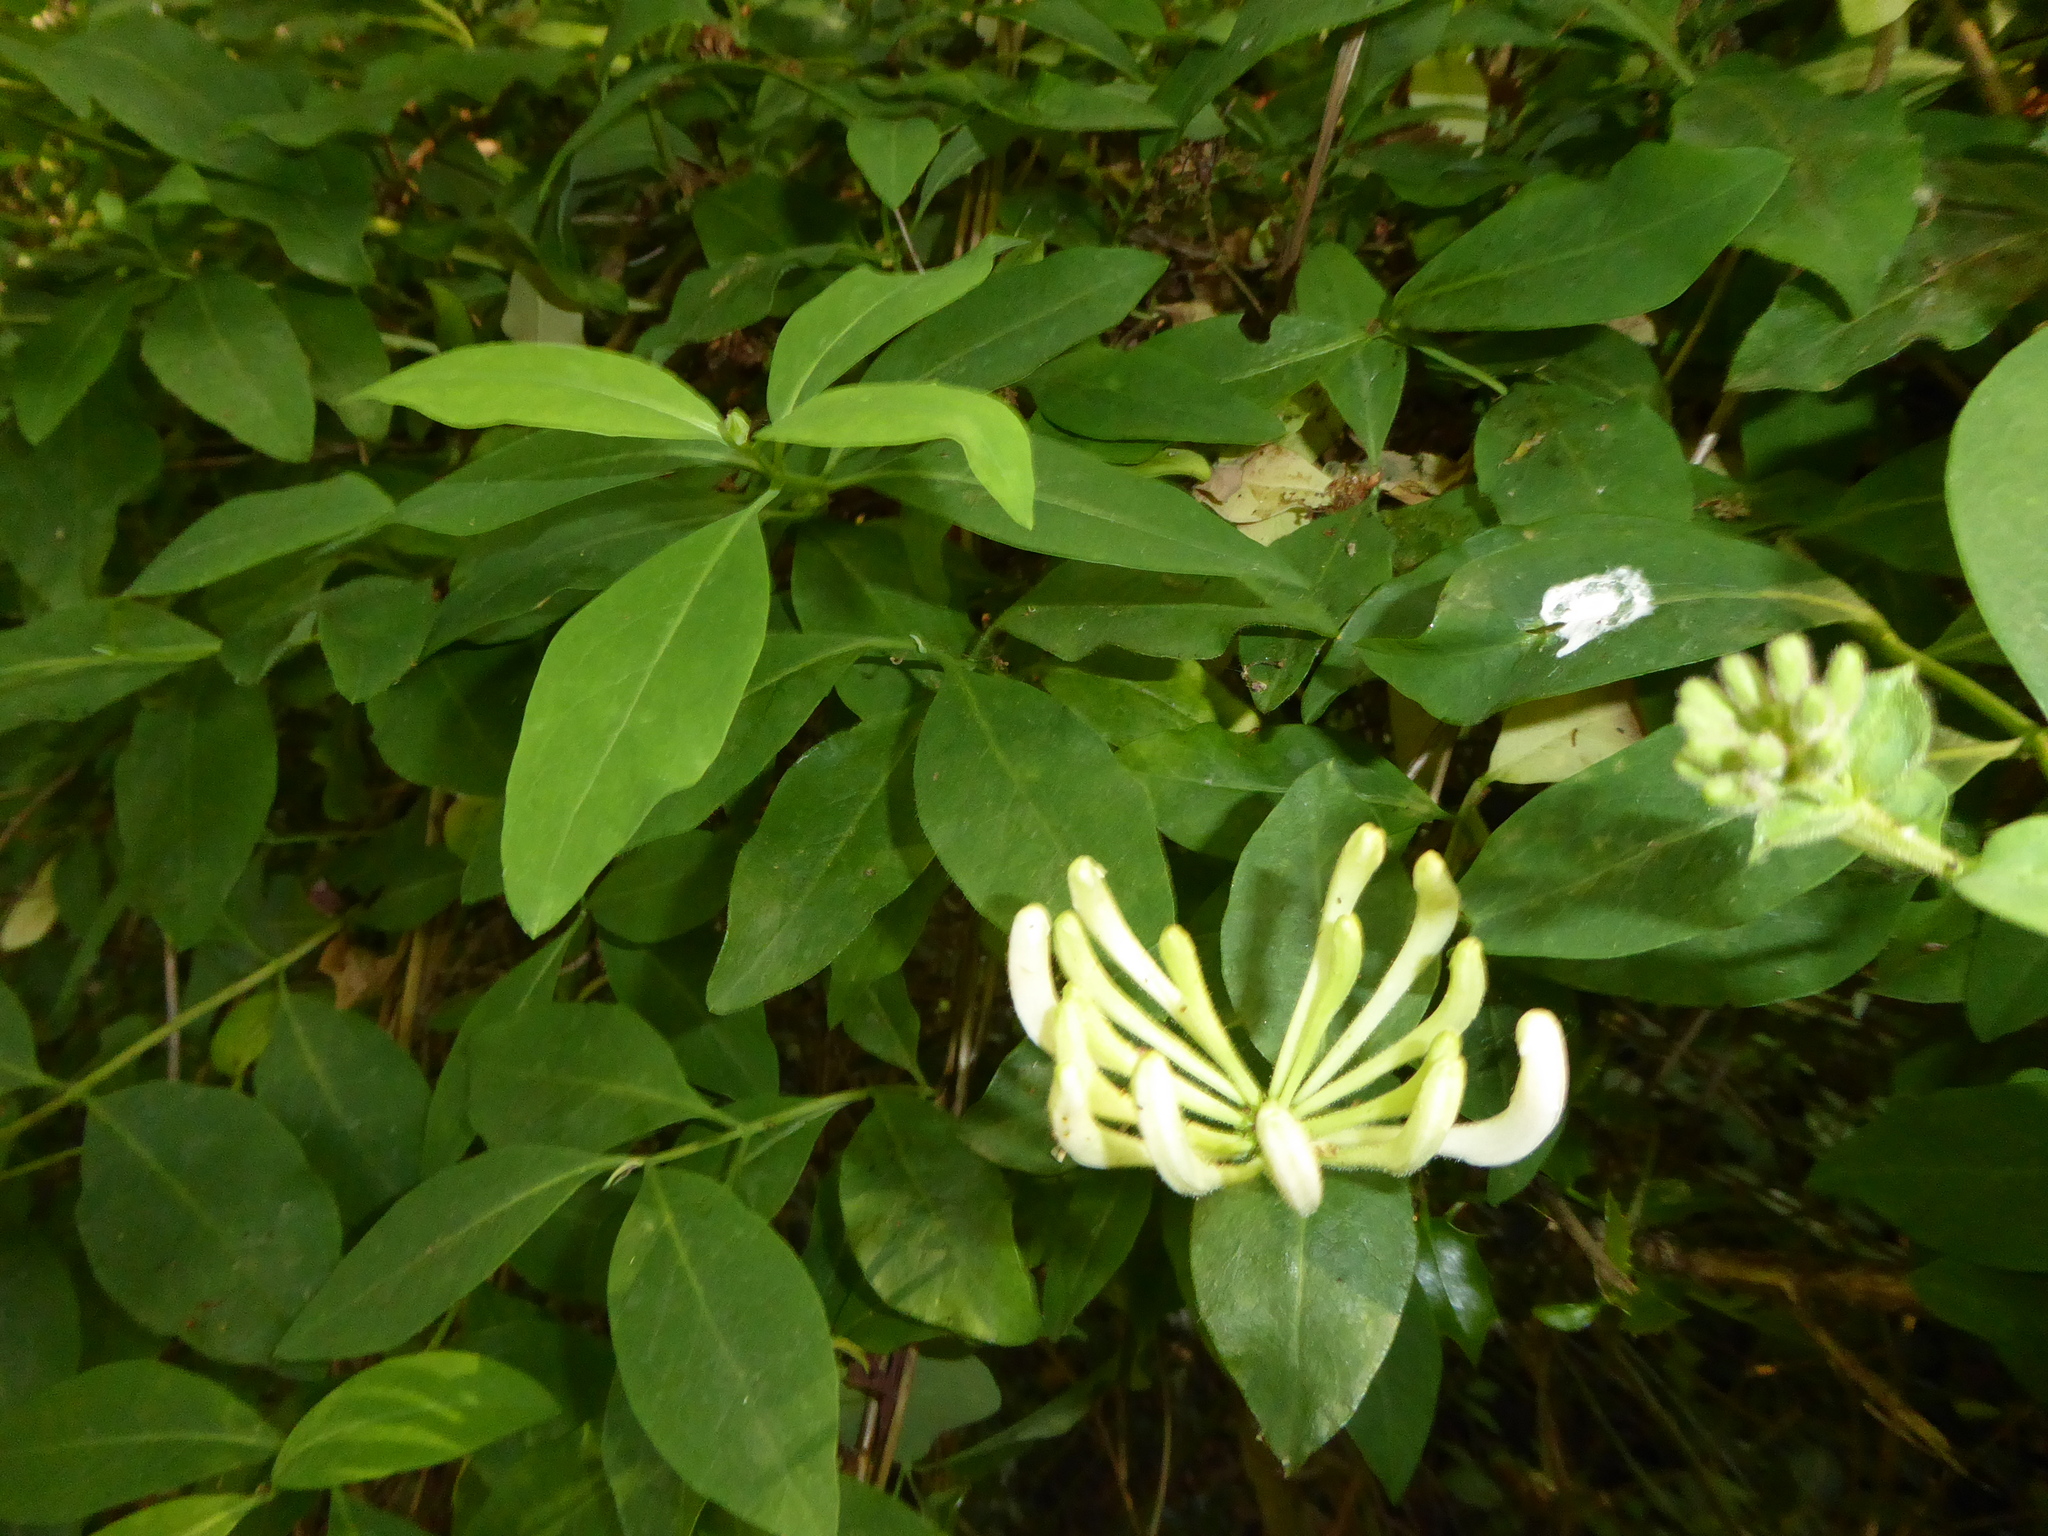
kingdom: Plantae
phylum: Tracheophyta
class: Magnoliopsida
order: Dipsacales
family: Caprifoliaceae
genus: Lonicera
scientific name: Lonicera periclymenum
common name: European honeysuckle
